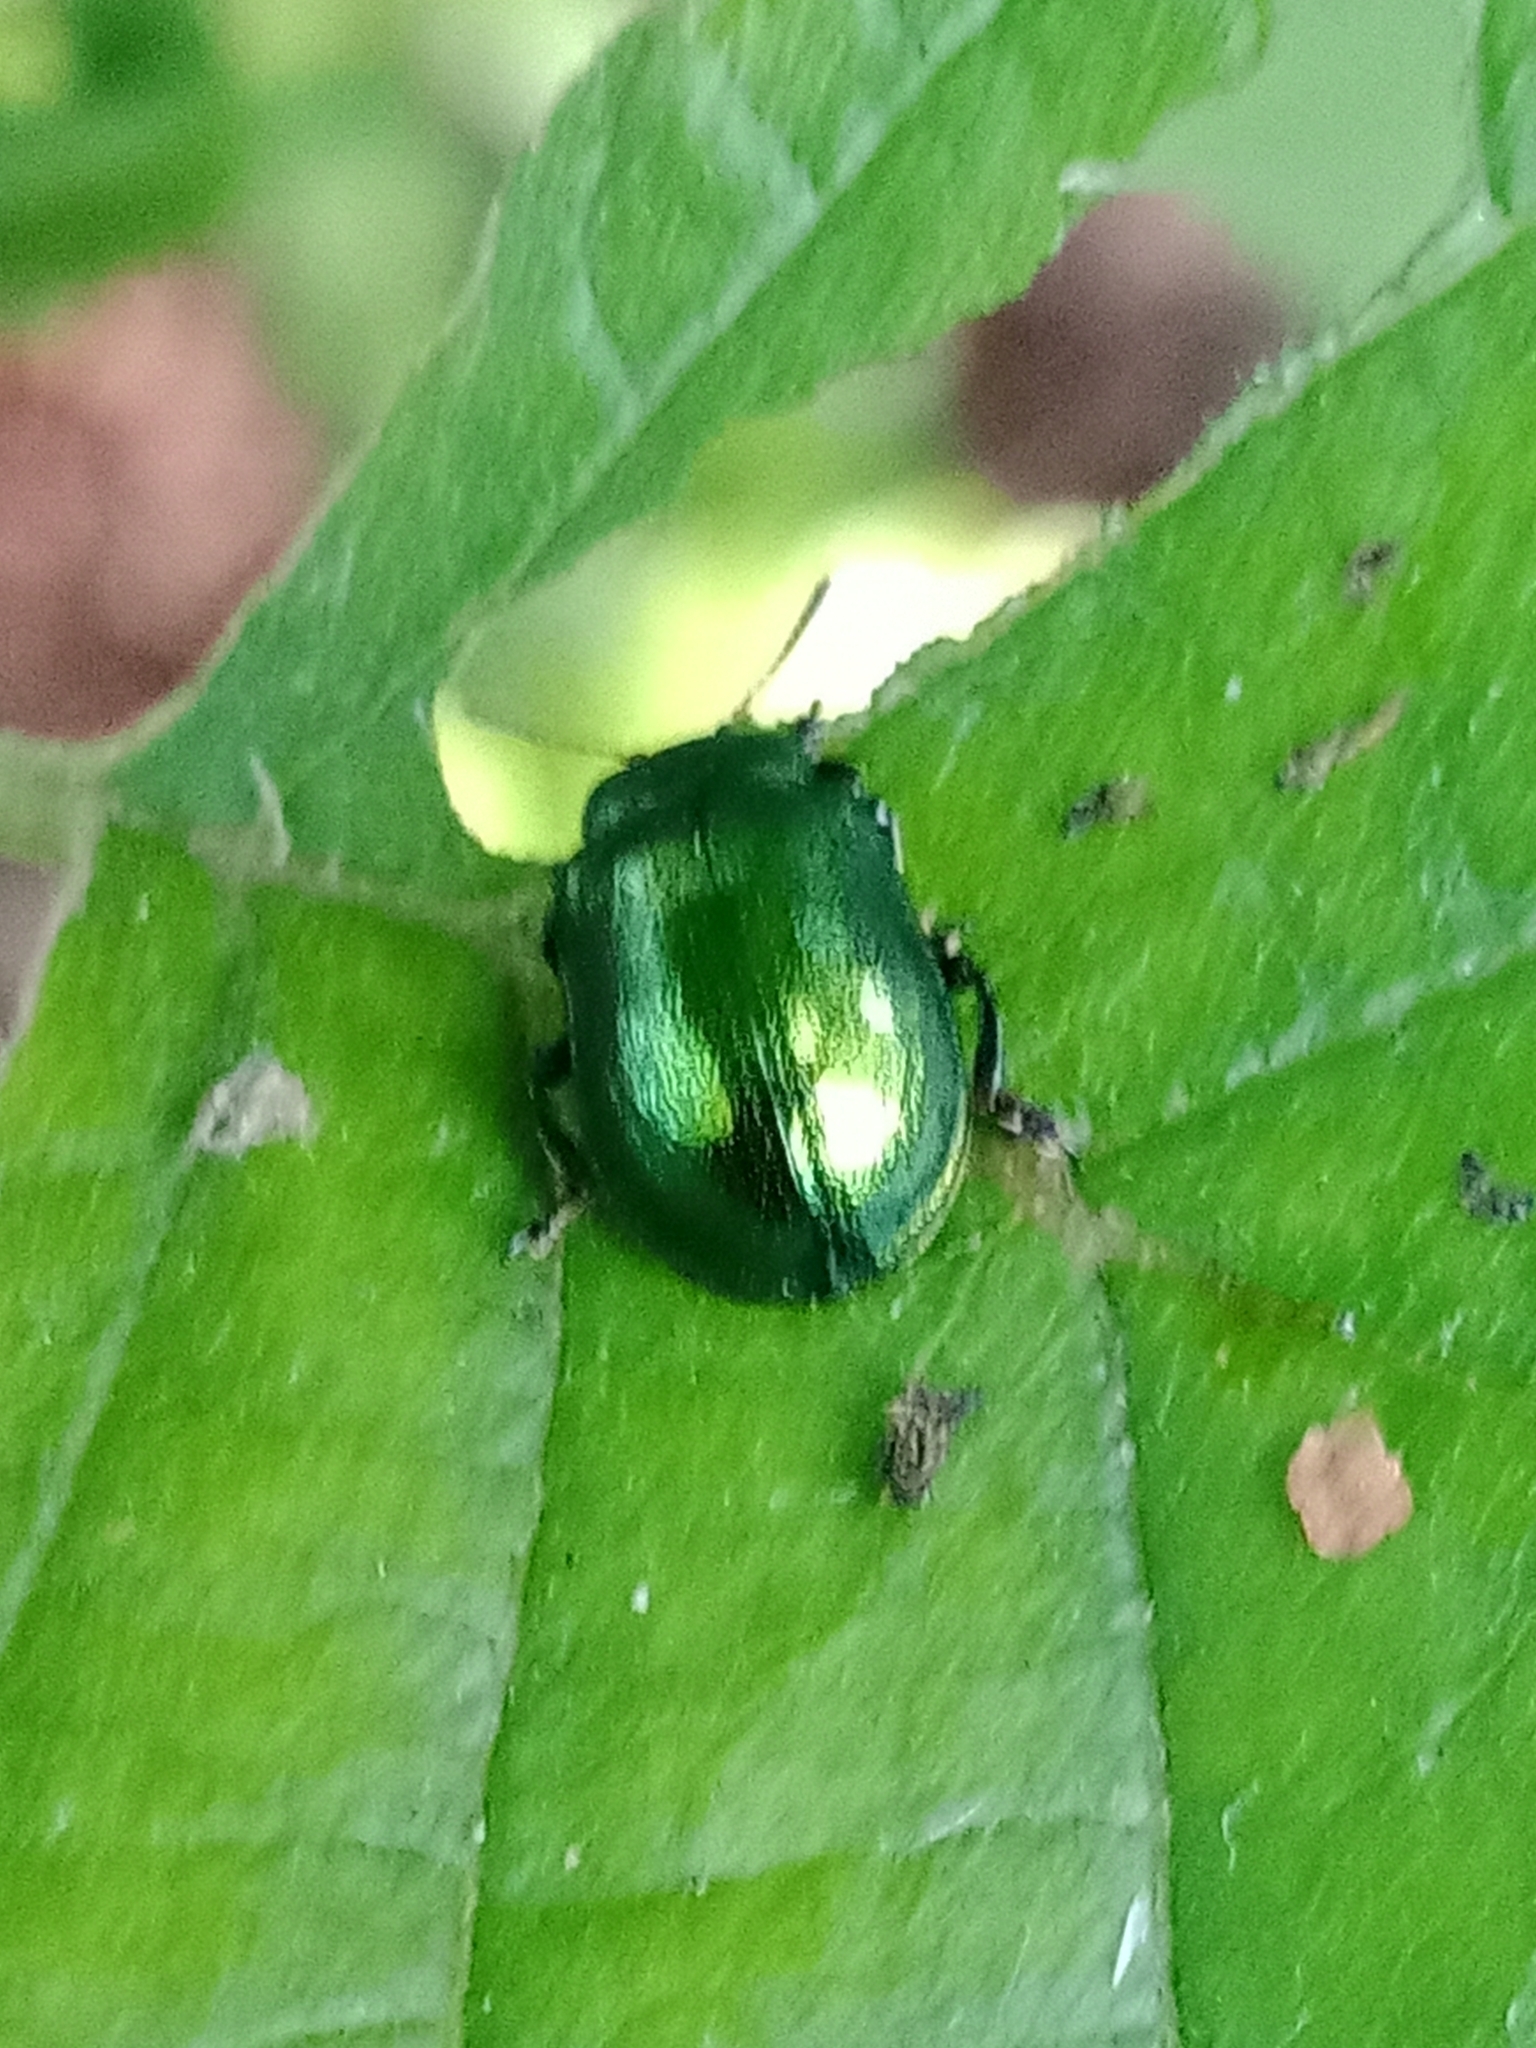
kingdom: Animalia
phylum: Arthropoda
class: Insecta
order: Coleoptera
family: Chrysomelidae
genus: Plagiosterna
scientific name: Plagiosterna aenea
